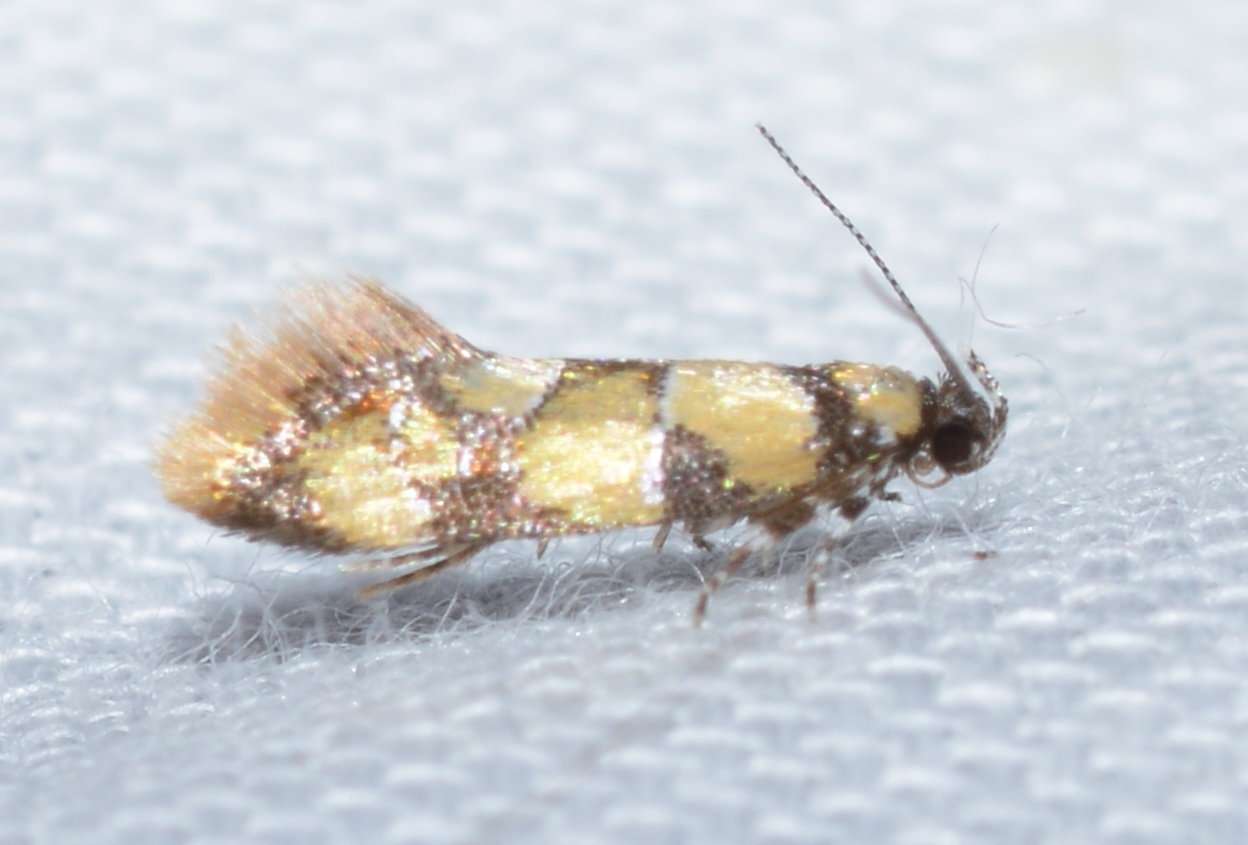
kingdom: Animalia
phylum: Arthropoda
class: Insecta
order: Lepidoptera
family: Oecophoridae
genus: Decantha
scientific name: Decantha borkhausenii
